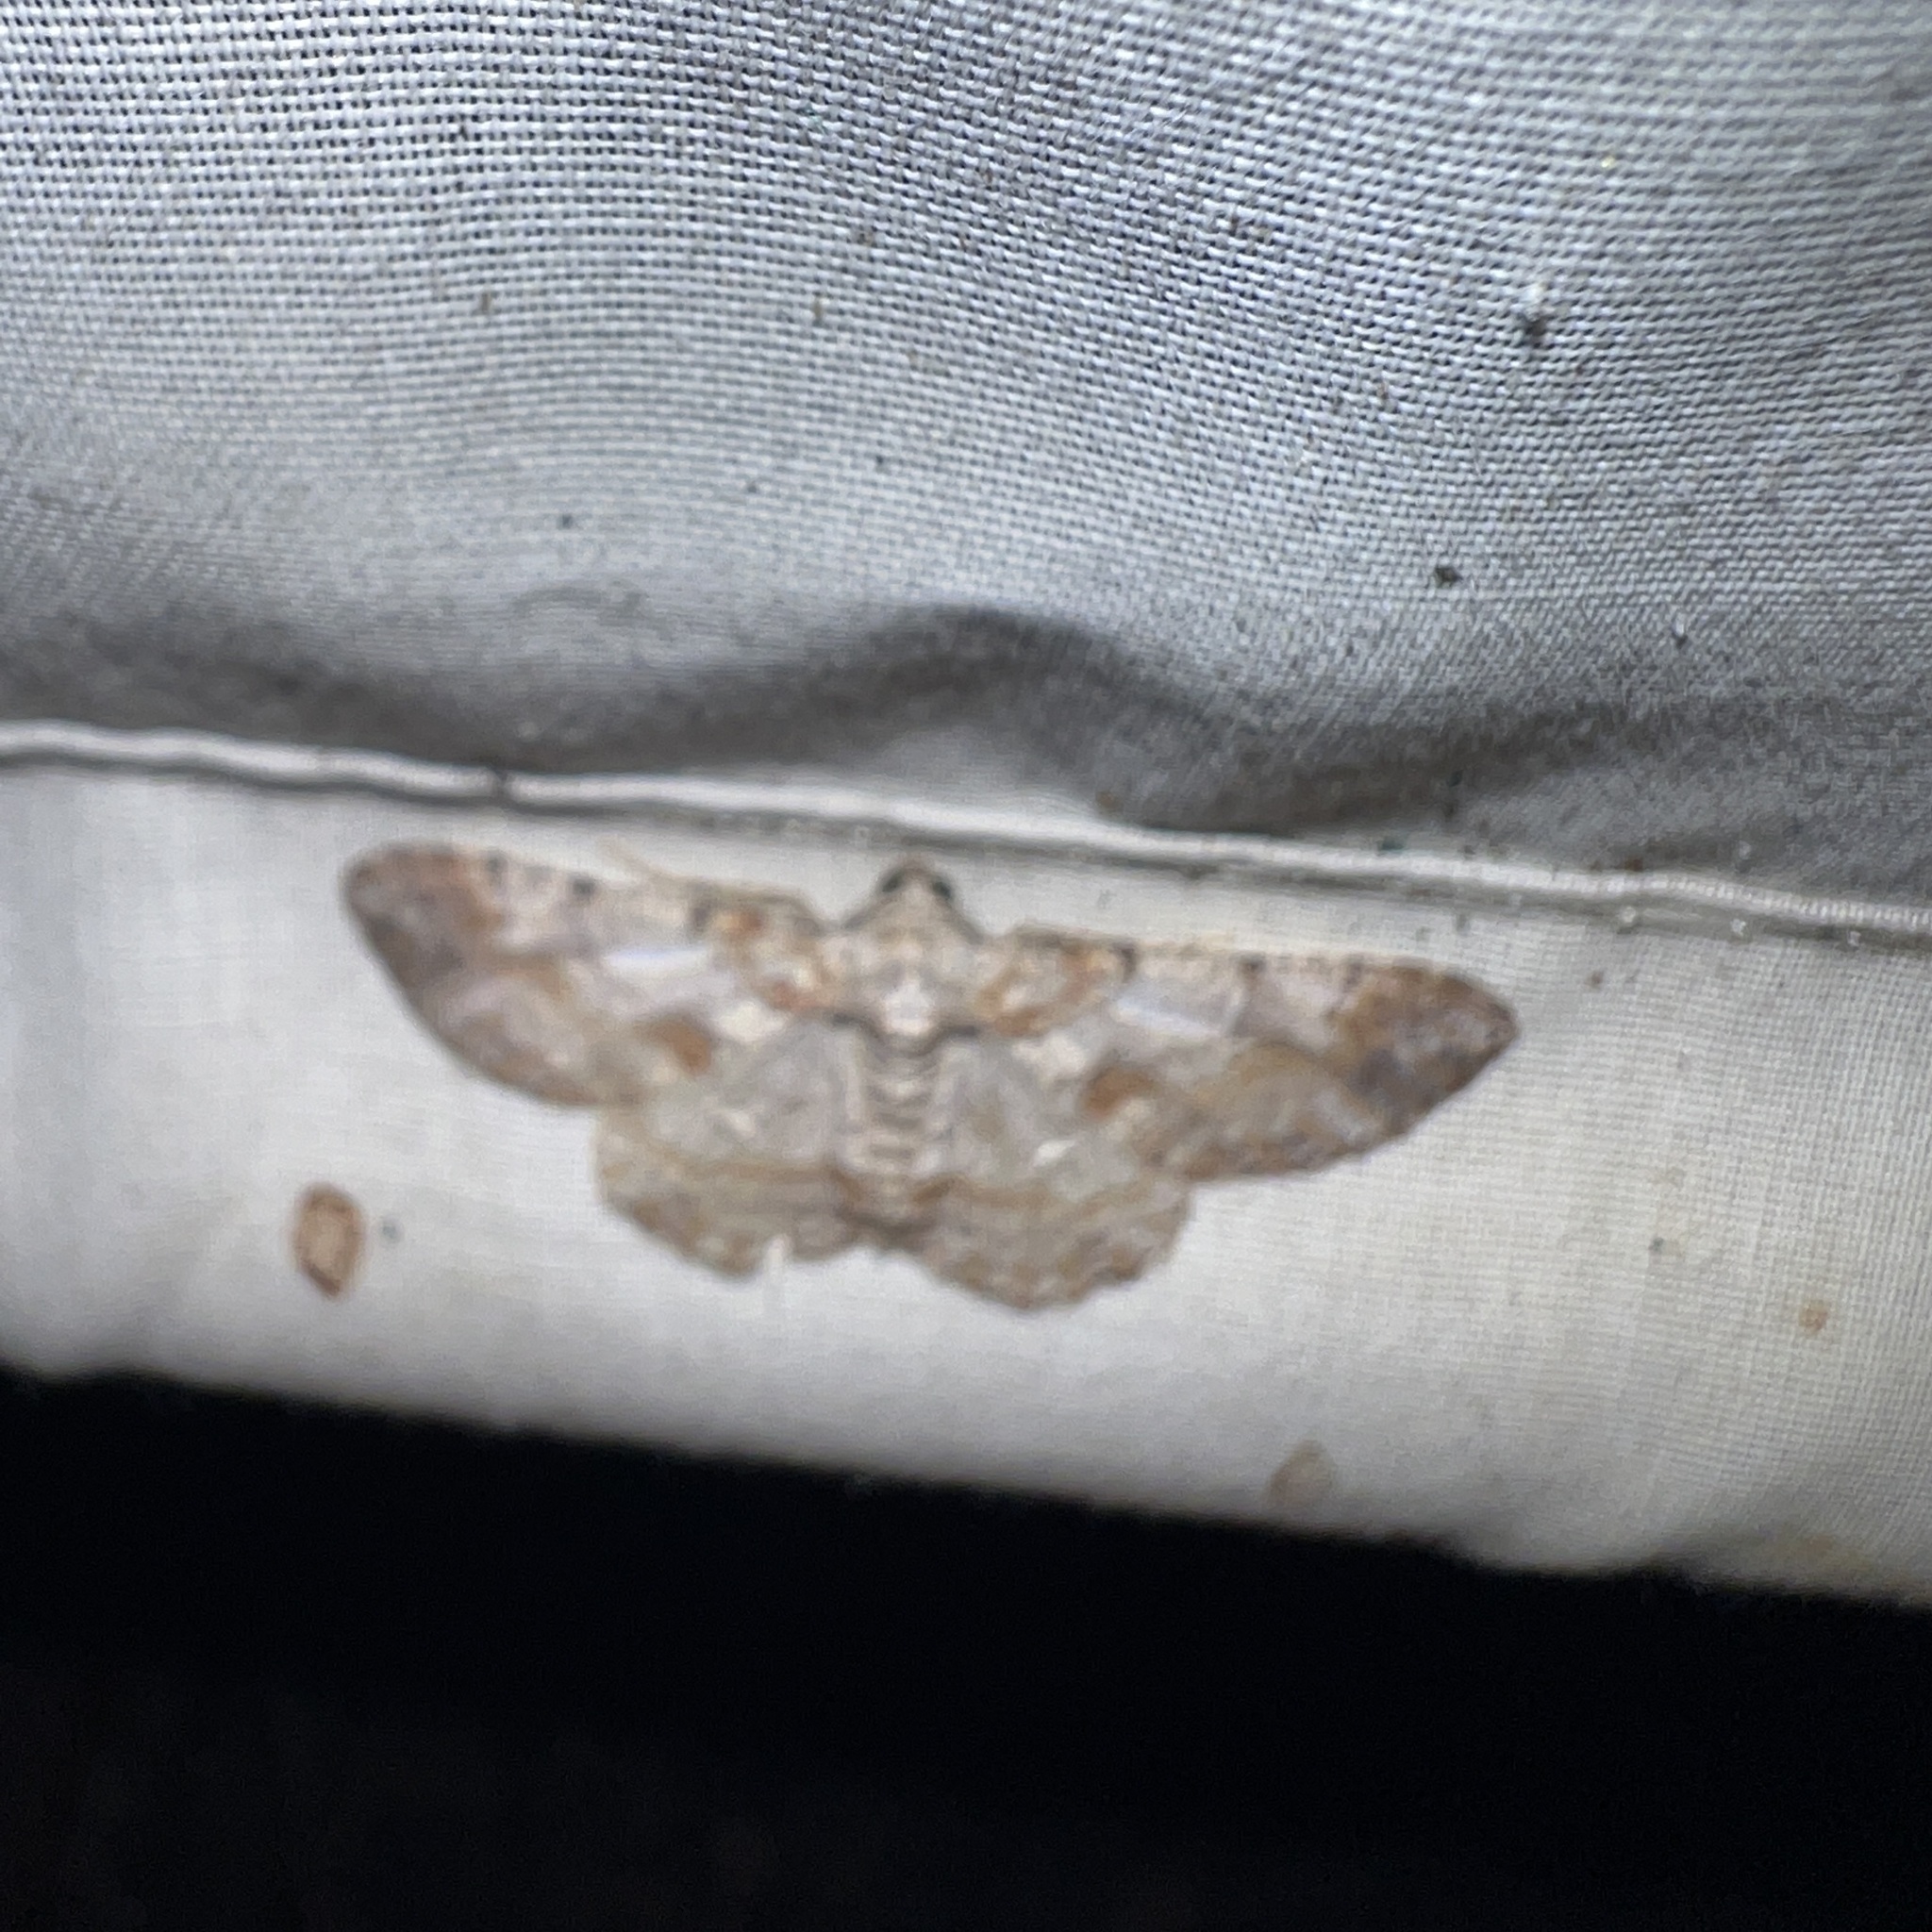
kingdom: Animalia
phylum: Arthropoda
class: Insecta
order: Lepidoptera
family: Geometridae
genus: Iridopsis
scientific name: Iridopsis validaria
